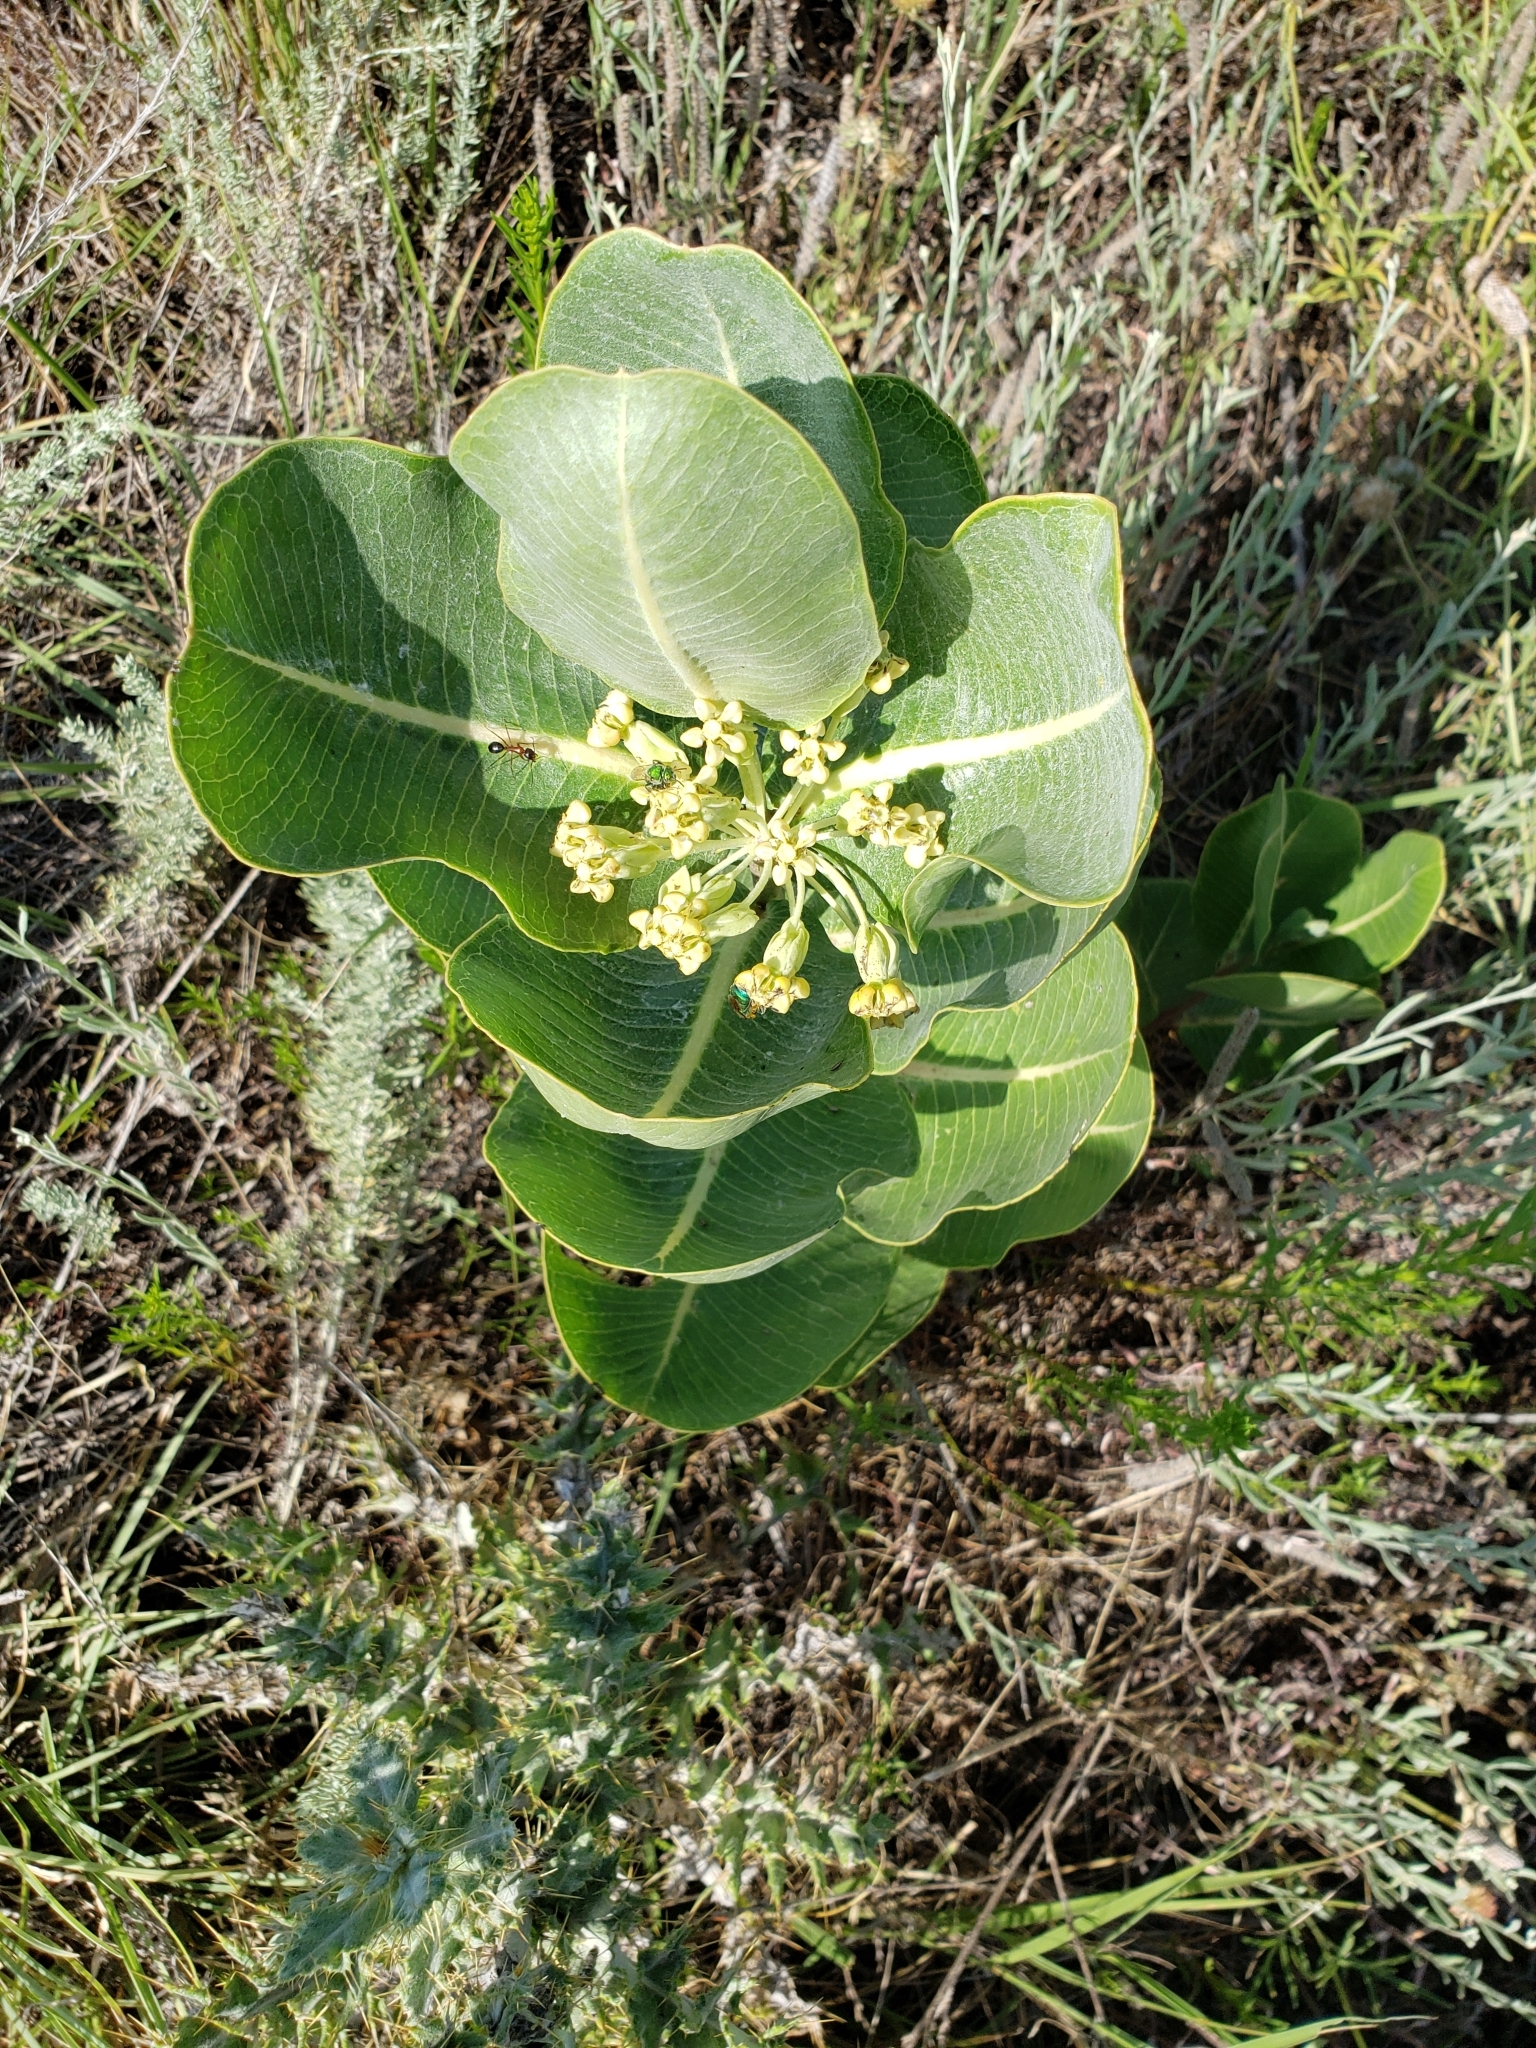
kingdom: Plantae
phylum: Tracheophyta
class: Magnoliopsida
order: Gentianales
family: Apocynaceae
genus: Asclepias
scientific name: Asclepias latifolia
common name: Broadleaf milkweed
